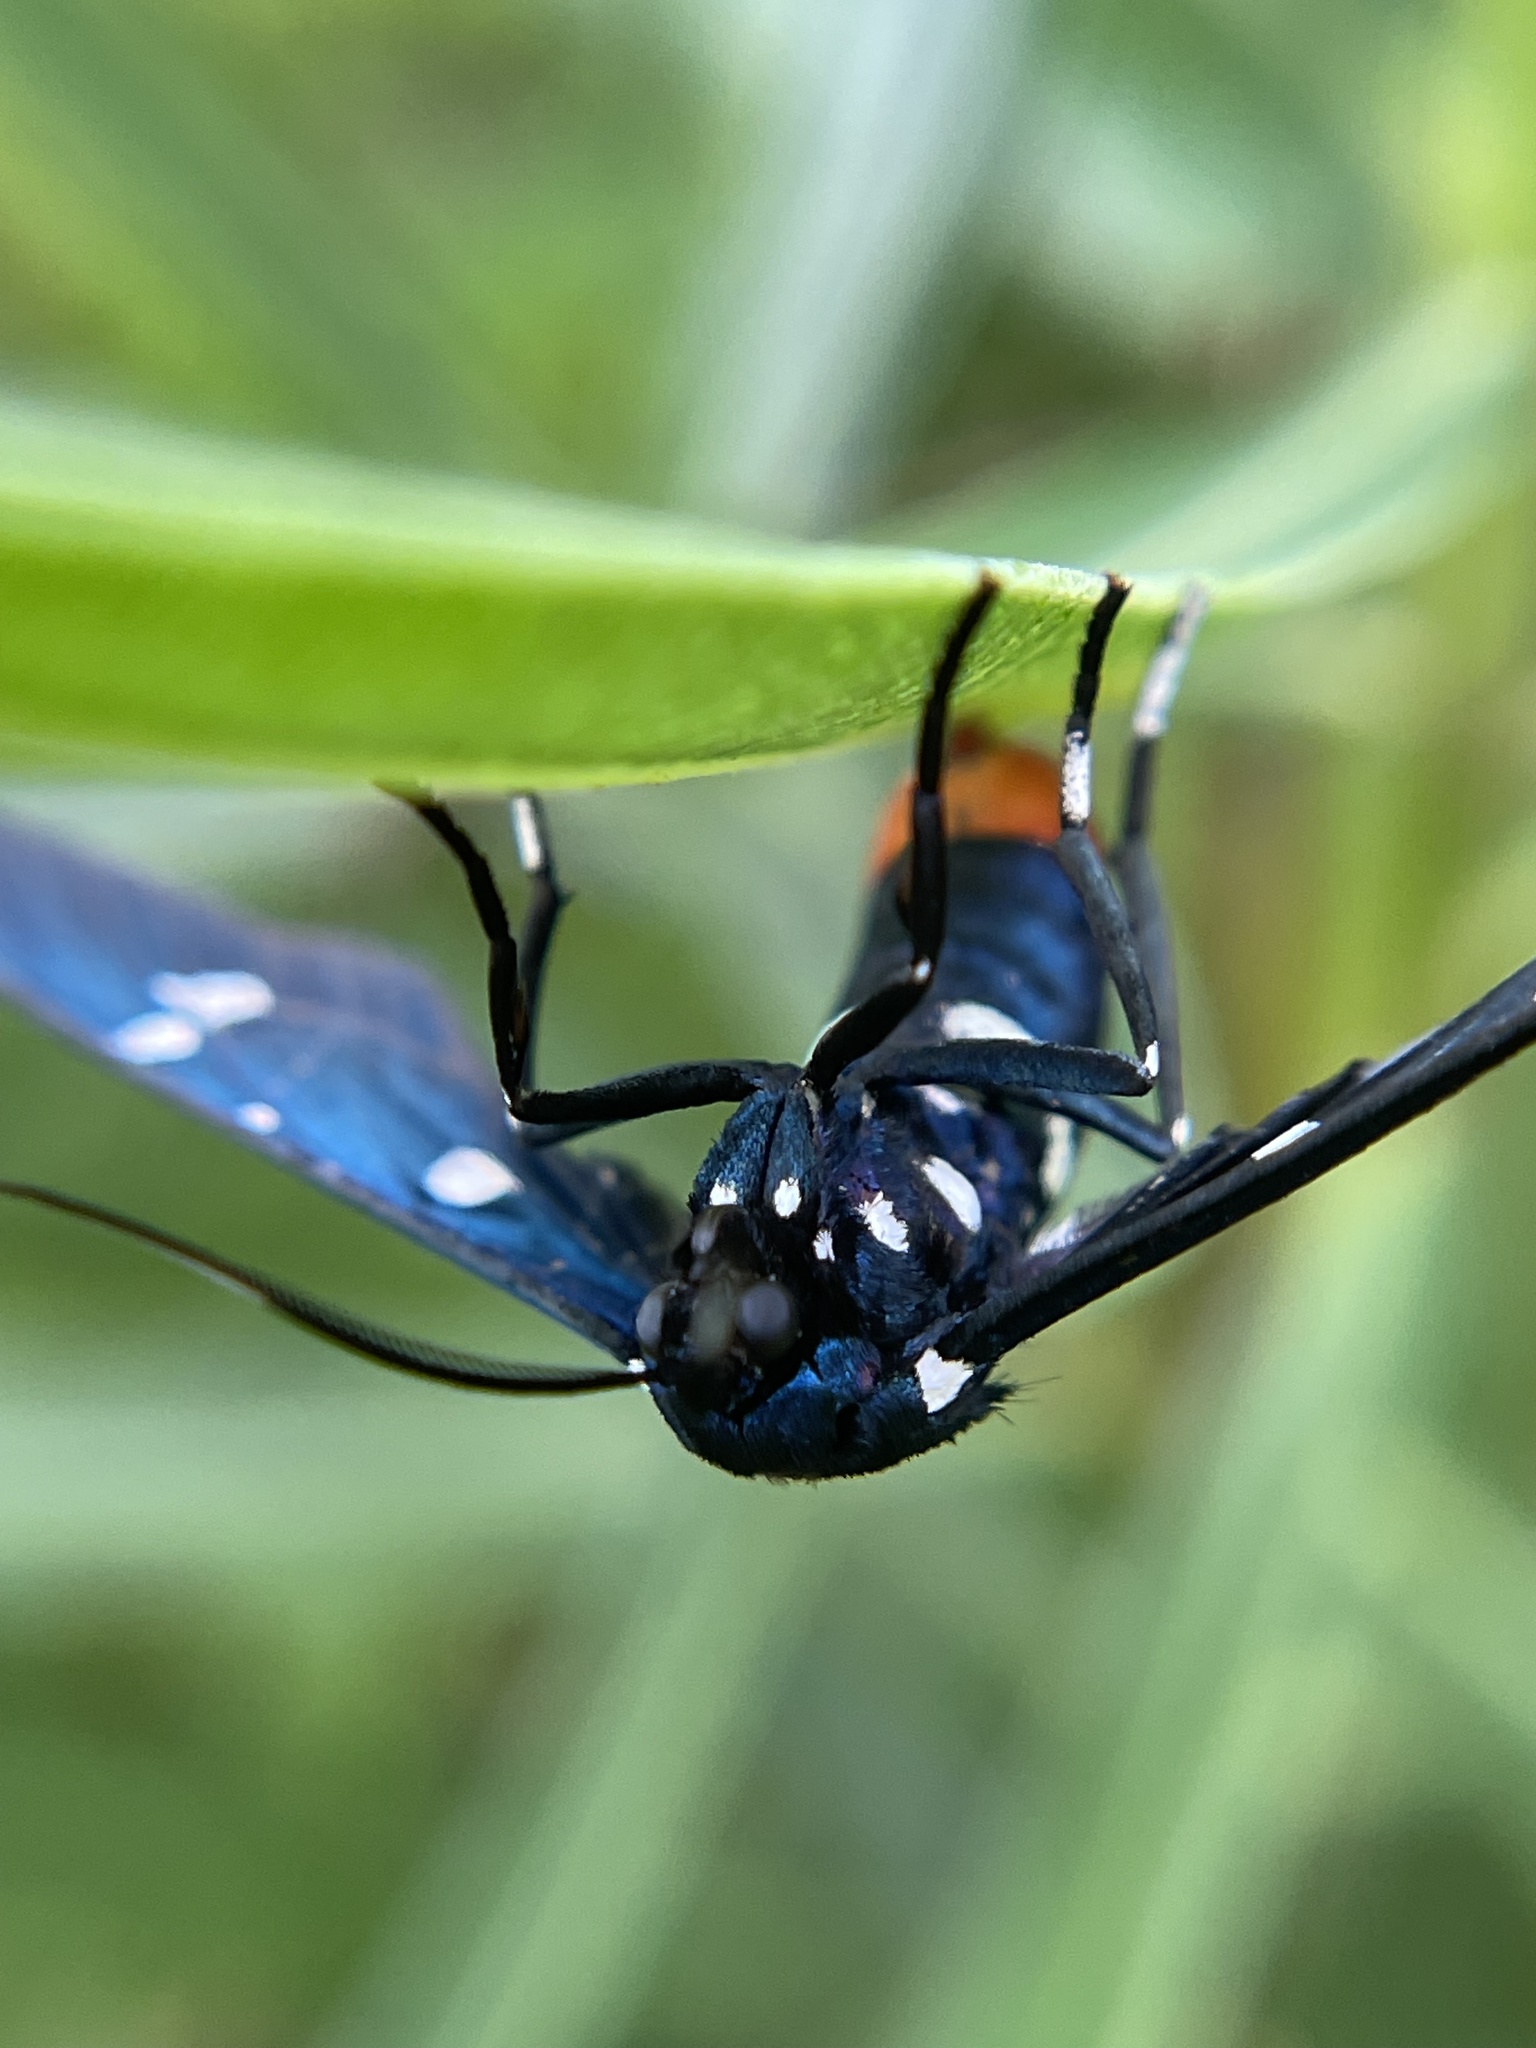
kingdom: Animalia
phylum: Arthropoda
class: Insecta
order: Lepidoptera
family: Erebidae
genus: Syntomeida
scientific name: Syntomeida epilais
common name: Polka-dot wasp moth
